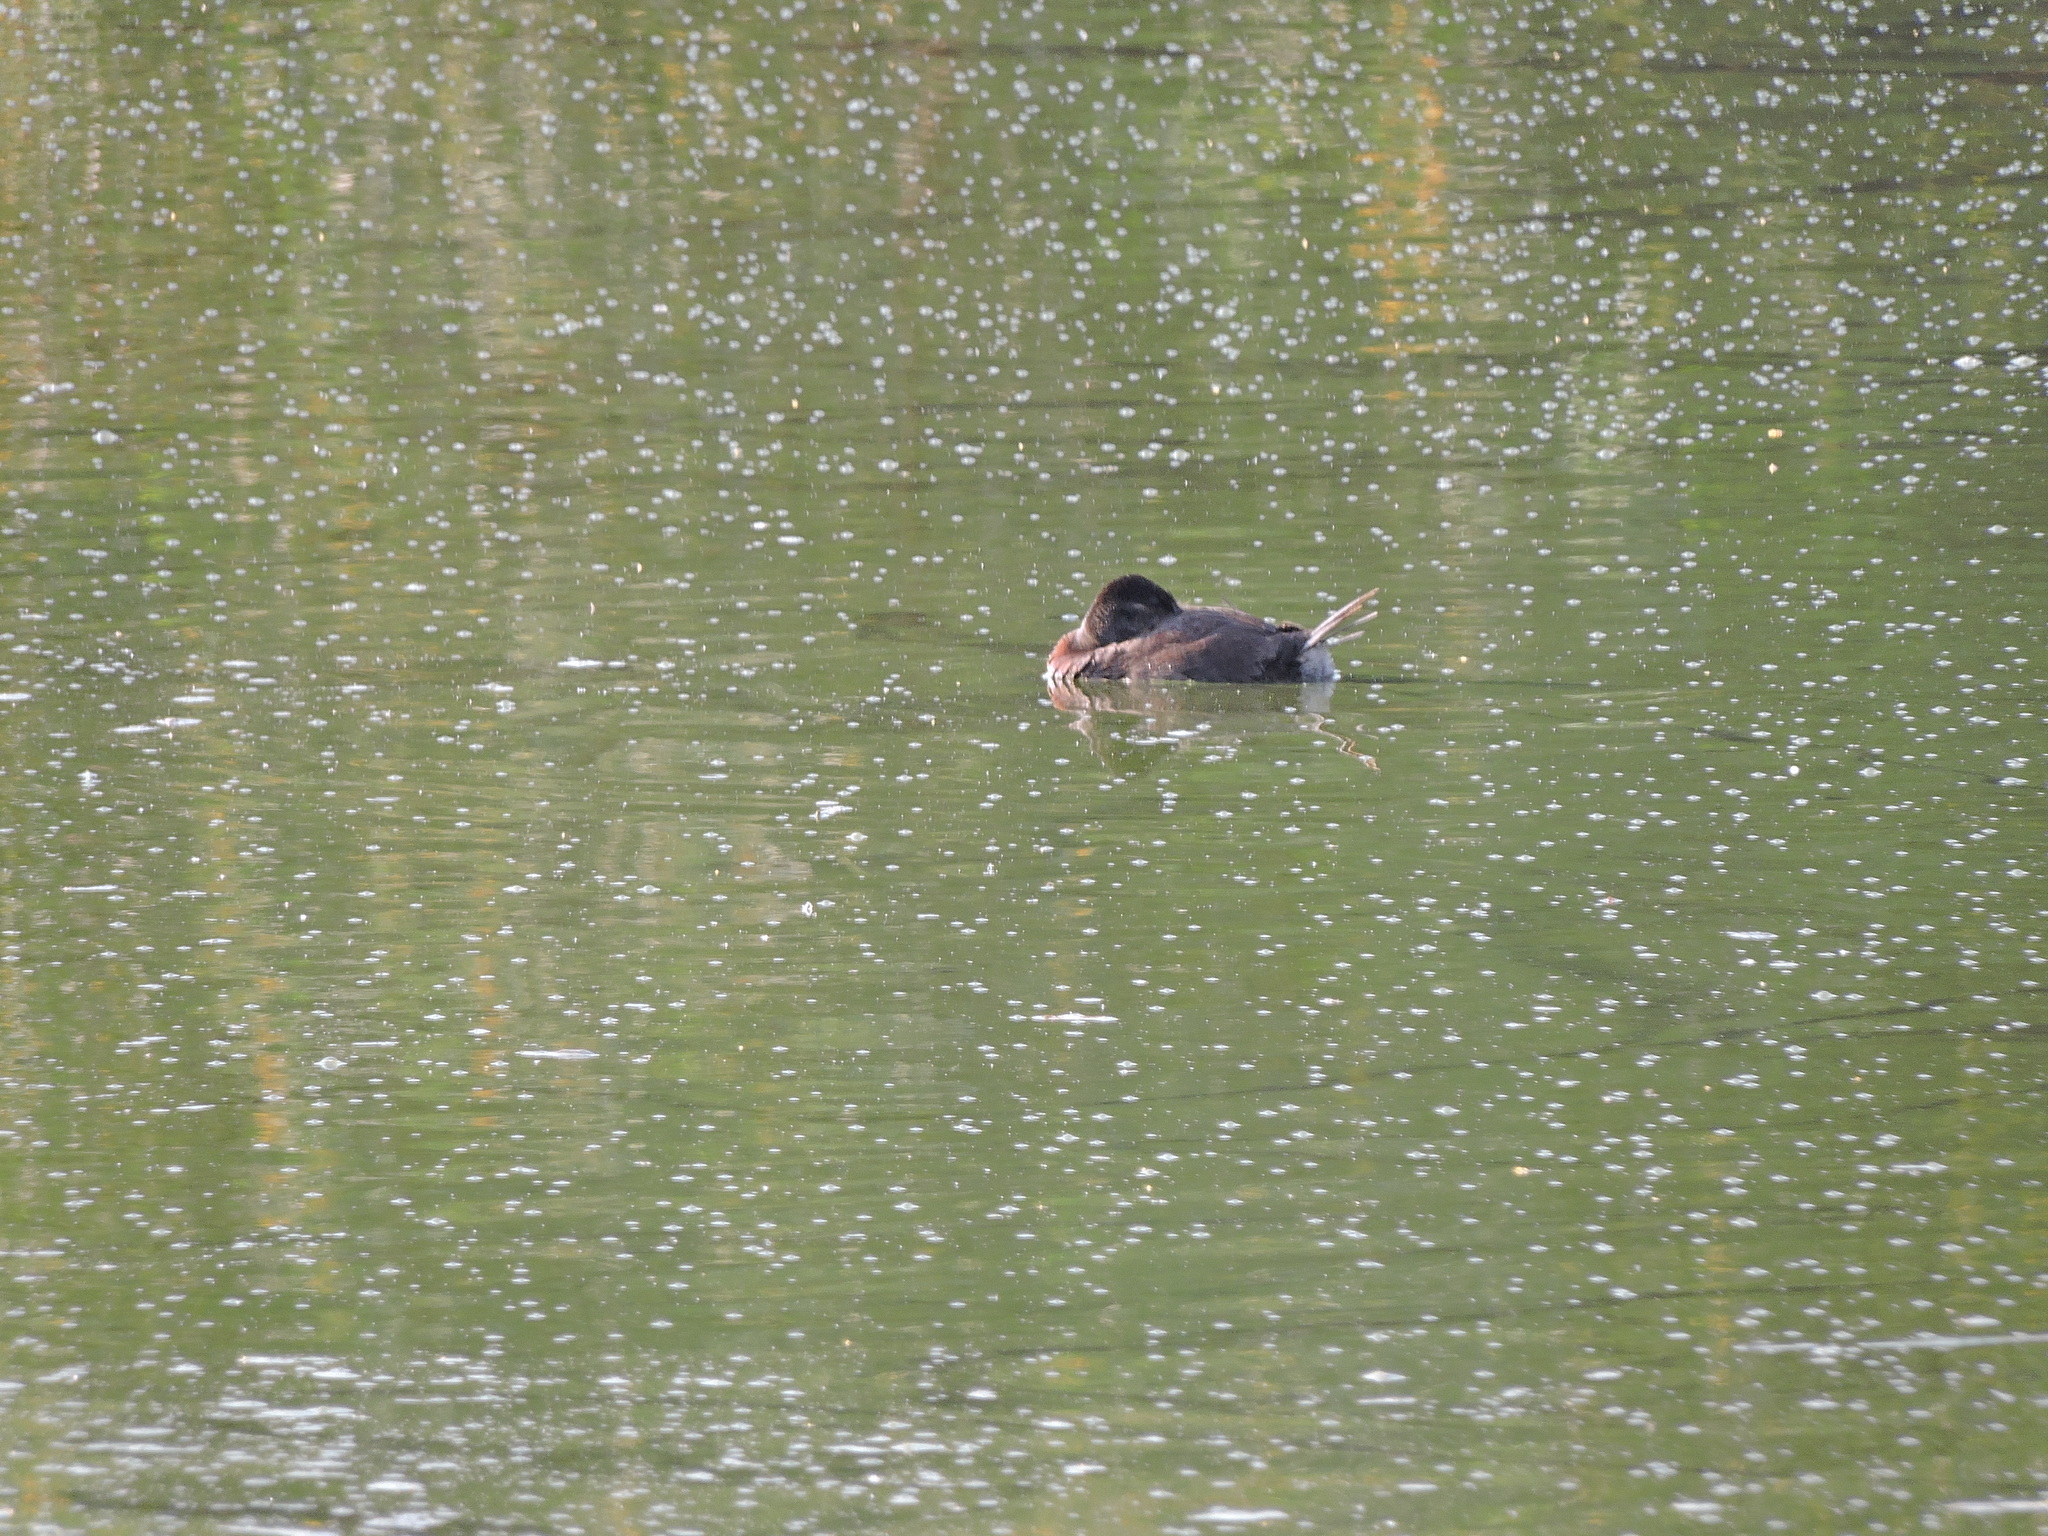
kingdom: Animalia
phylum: Chordata
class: Aves
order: Anseriformes
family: Anatidae
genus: Oxyura
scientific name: Oxyura jamaicensis
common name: Ruddy duck
